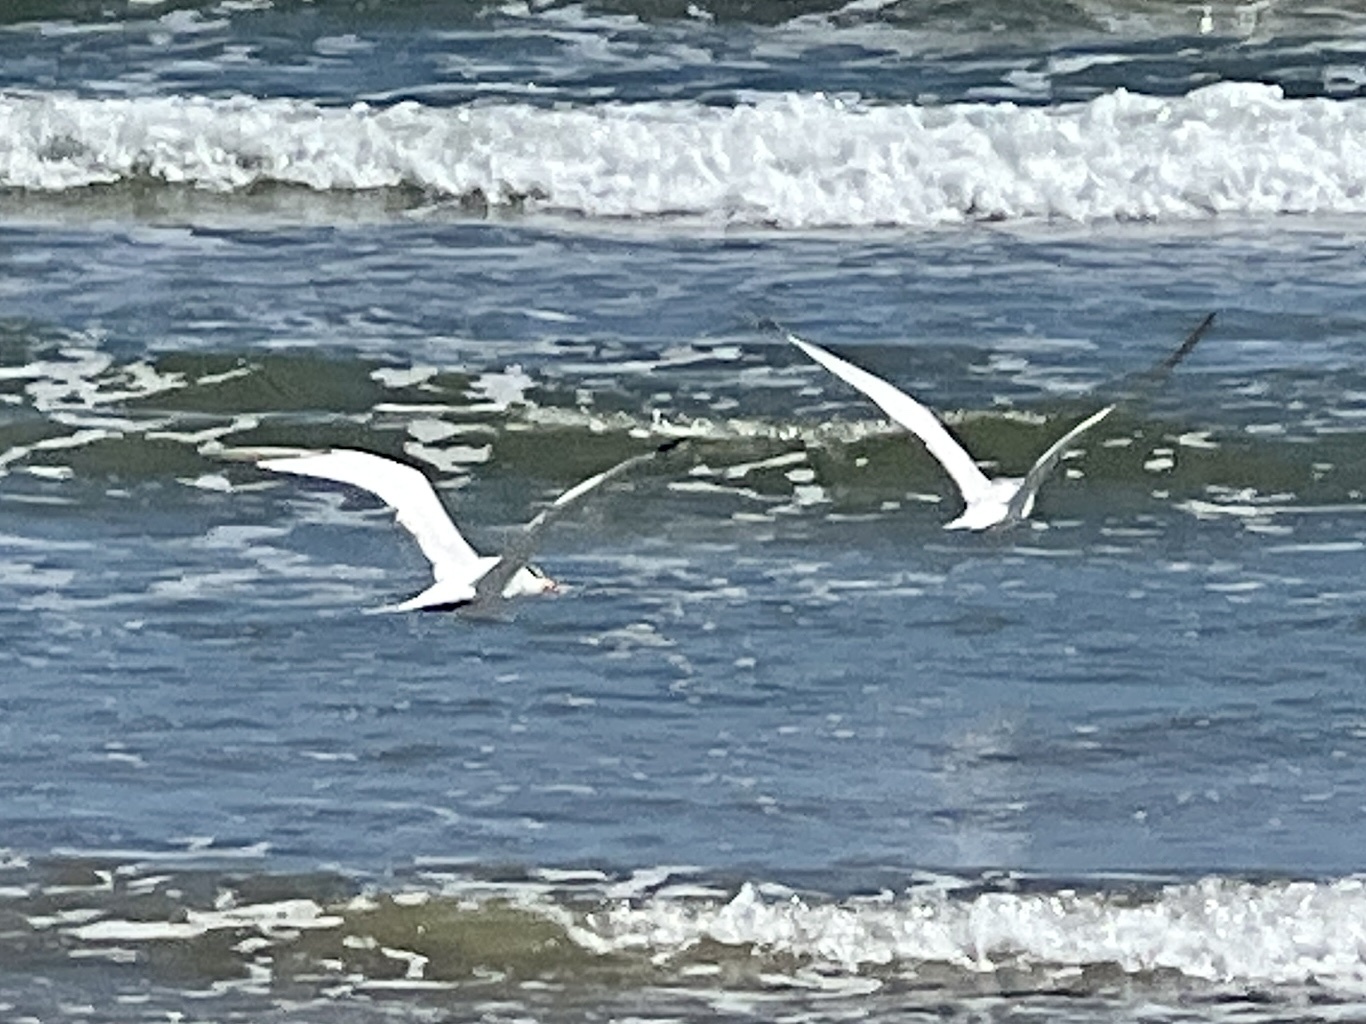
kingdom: Animalia
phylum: Chordata
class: Aves
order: Charadriiformes
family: Laridae
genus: Thalasseus
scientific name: Thalasseus maximus
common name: Royal tern
